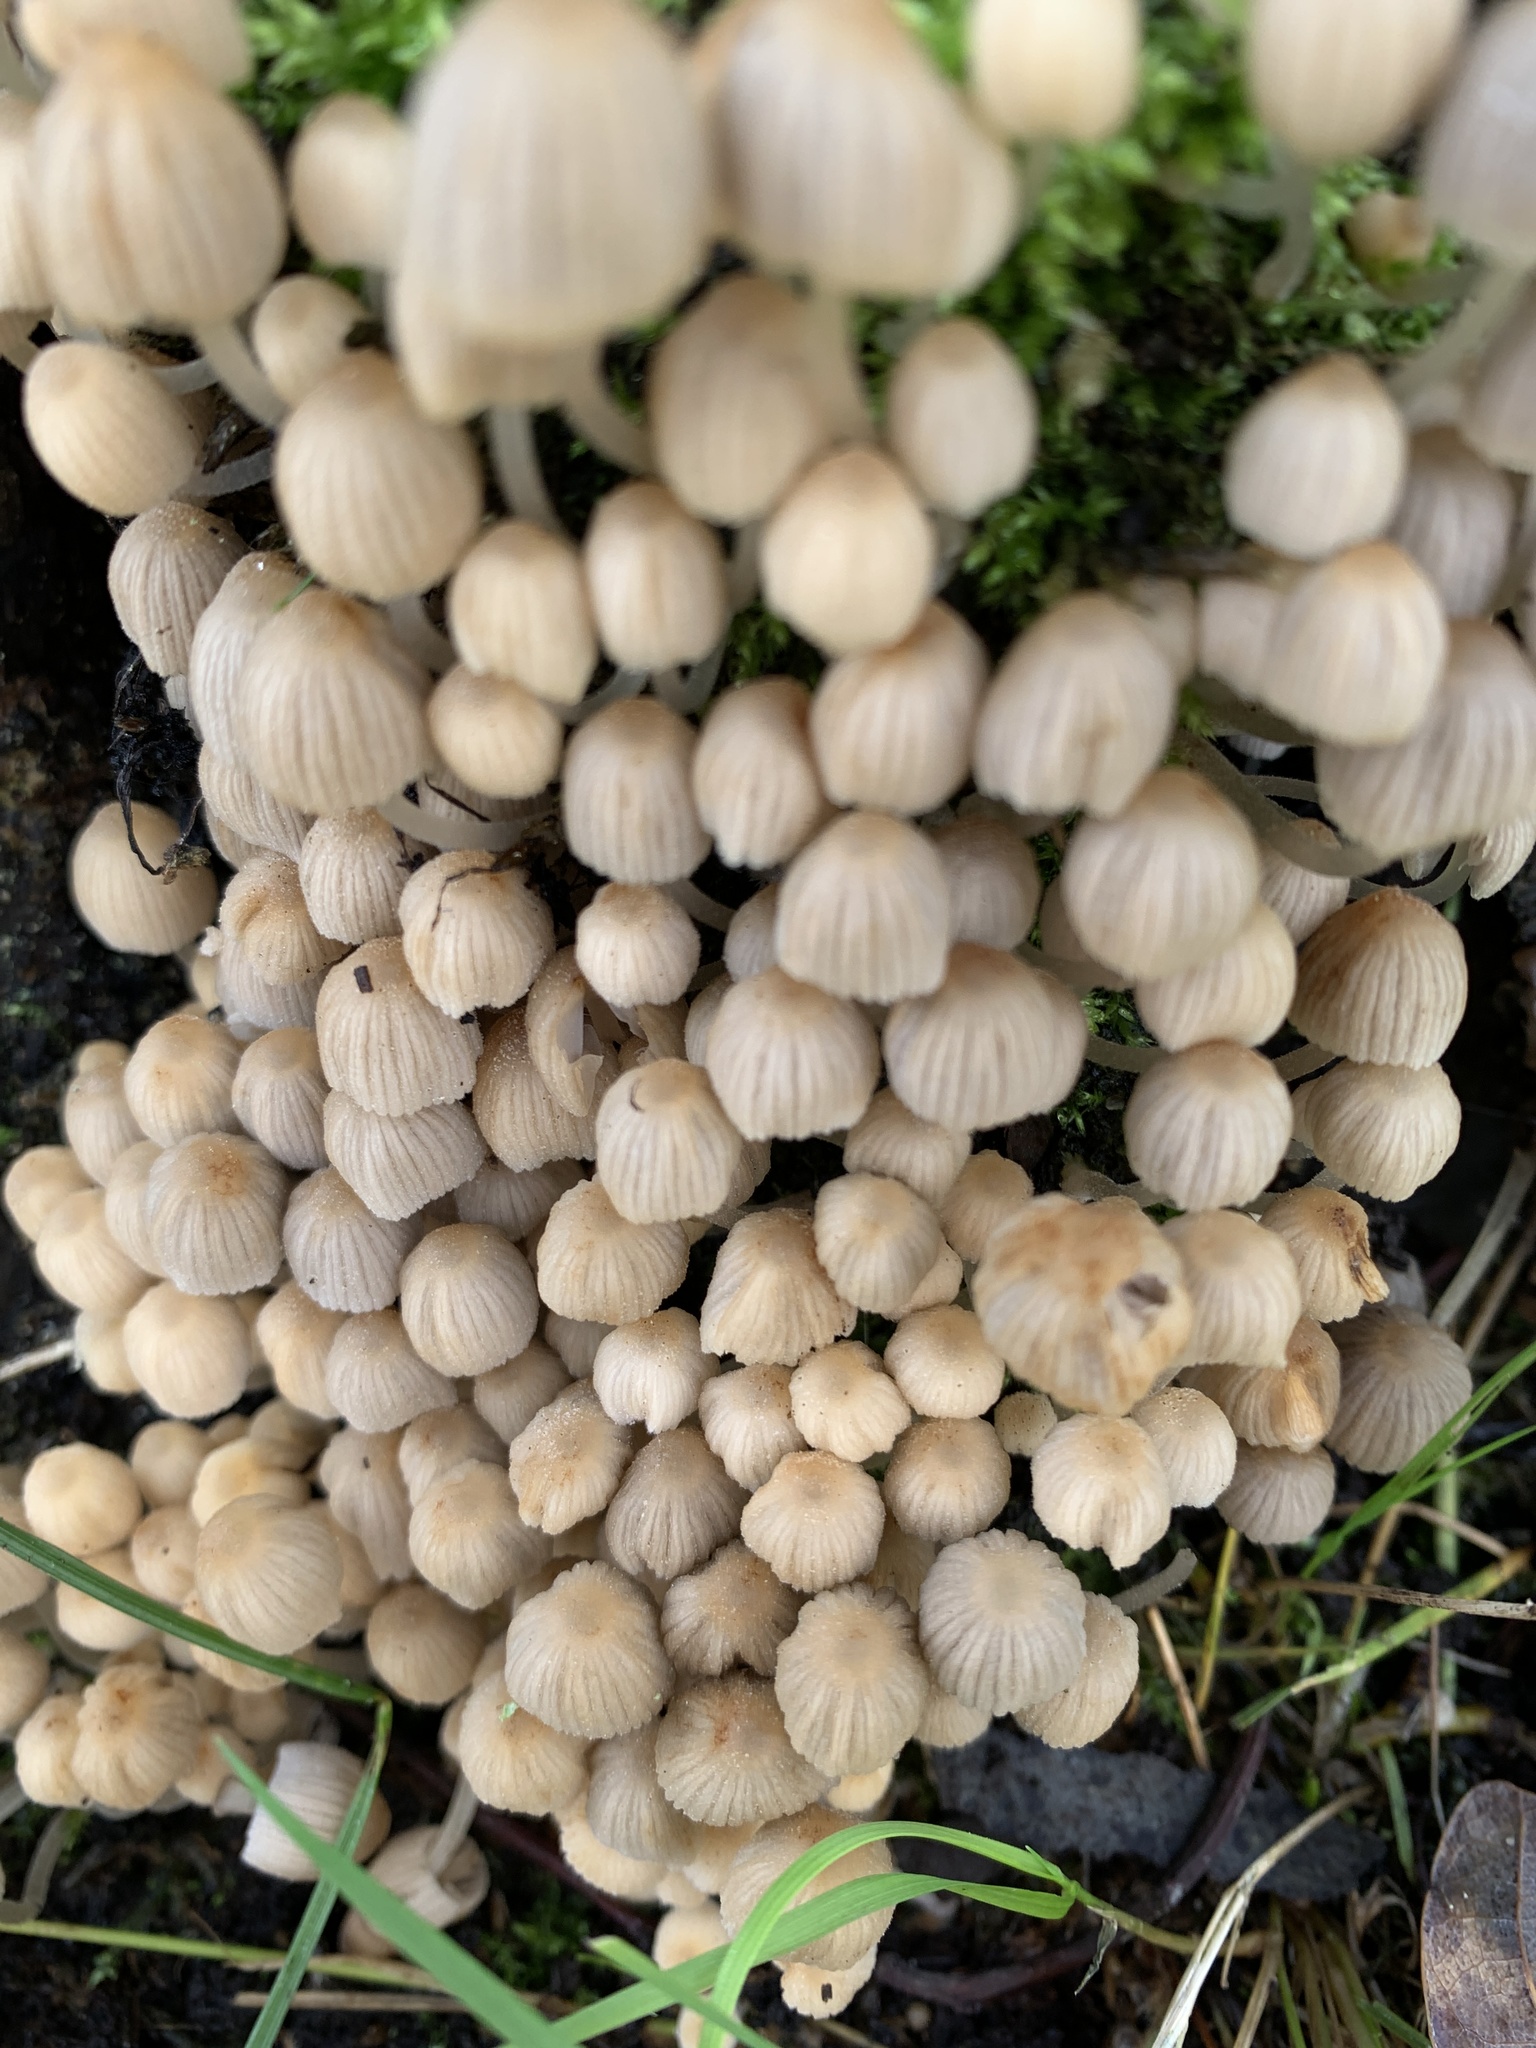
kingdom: Fungi
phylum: Basidiomycota
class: Agaricomycetes
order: Agaricales
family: Psathyrellaceae
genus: Coprinellus
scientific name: Coprinellus disseminatus
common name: Fairies' bonnets
